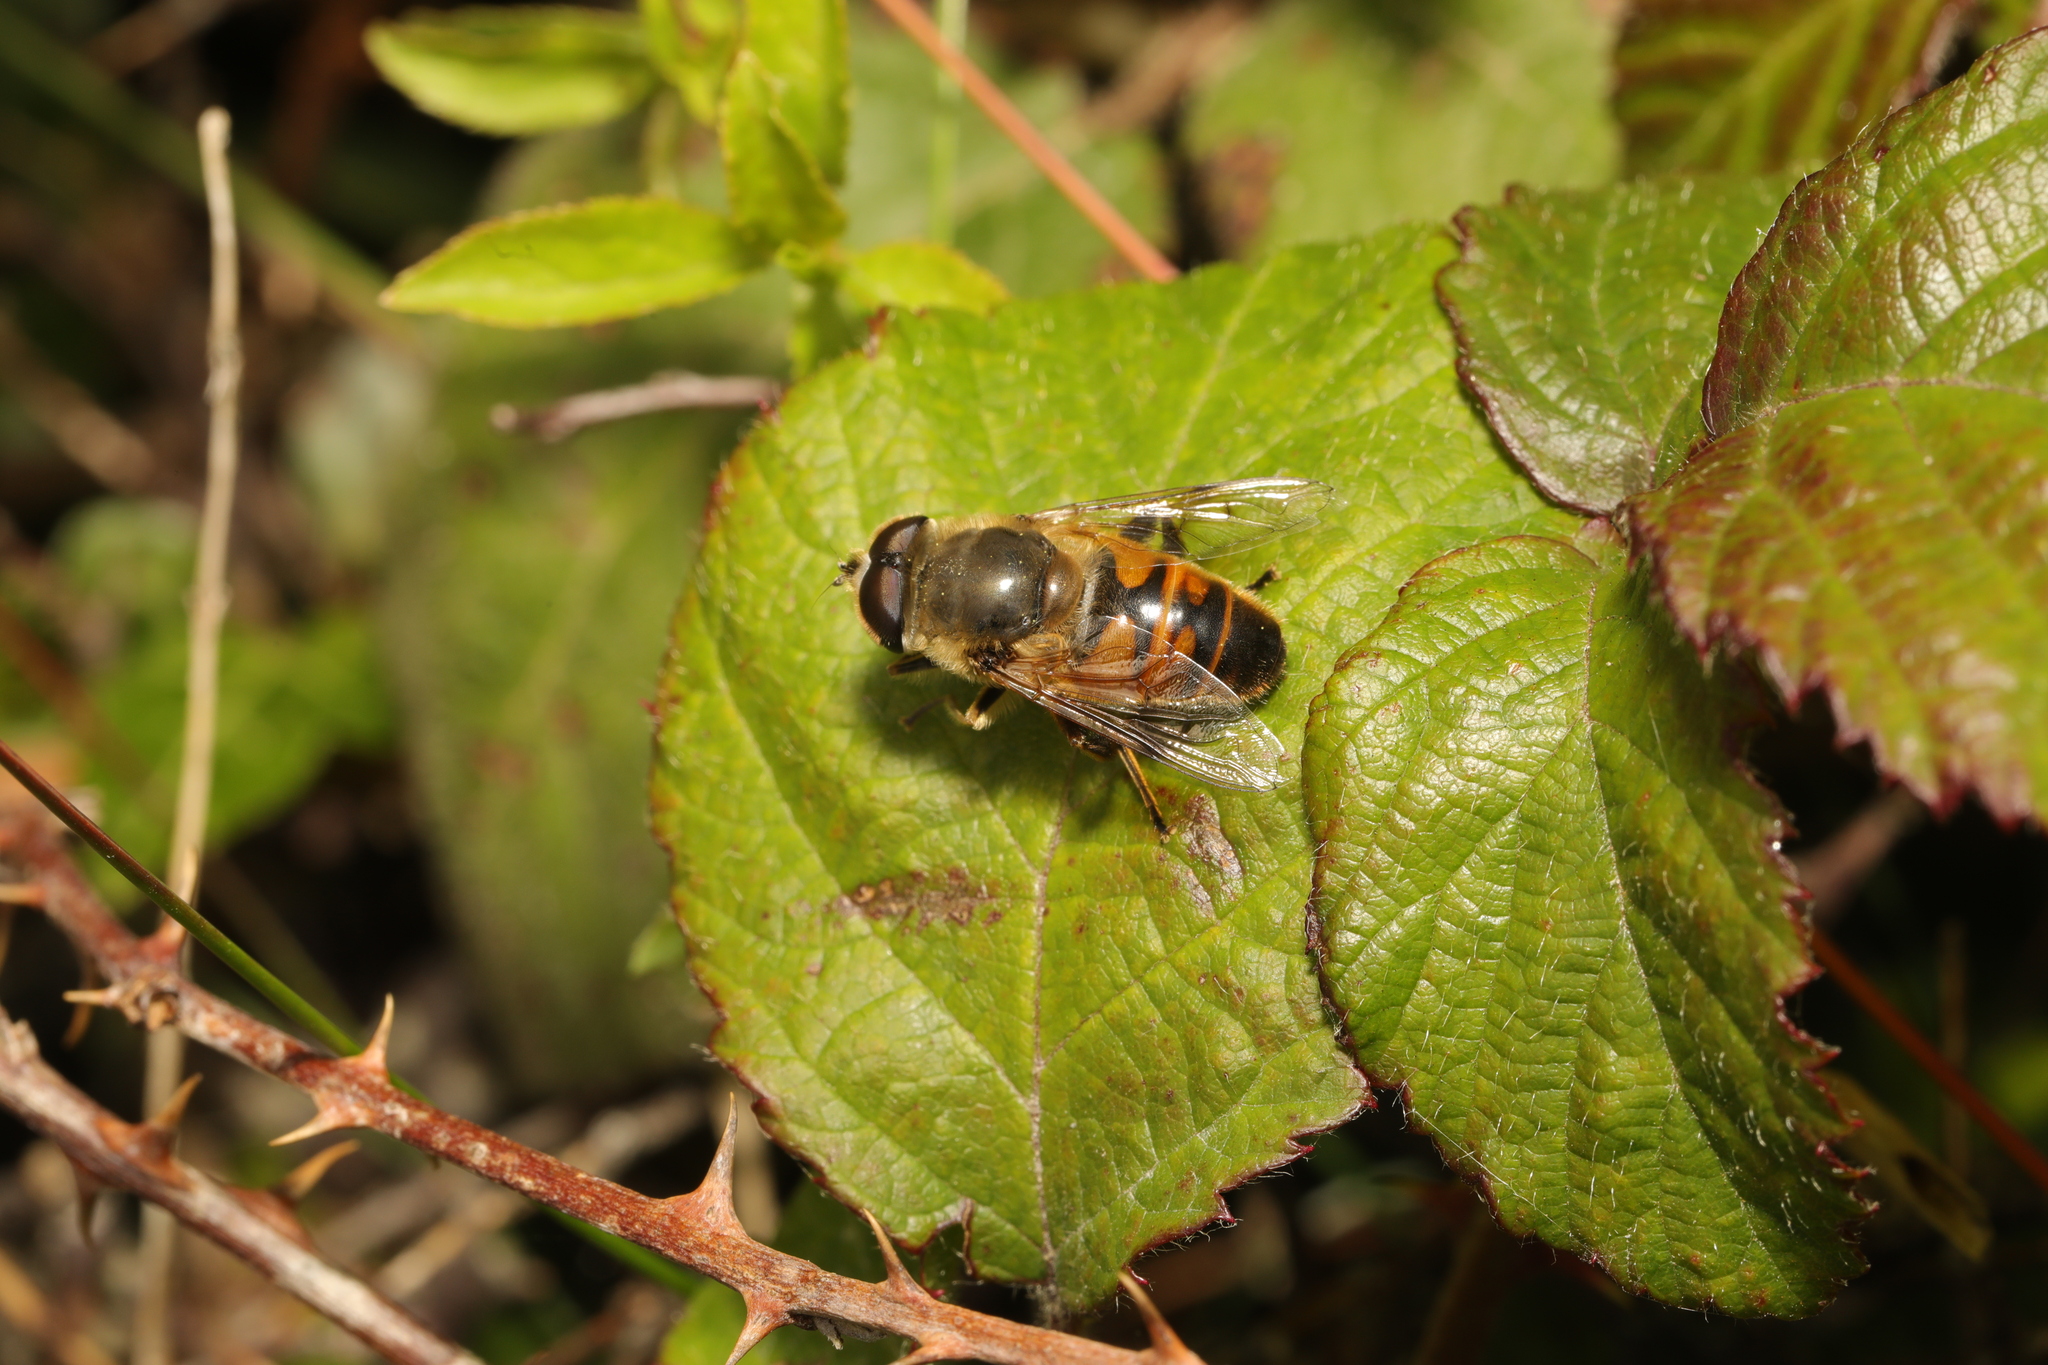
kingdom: Animalia
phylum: Arthropoda
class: Insecta
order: Diptera
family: Syrphidae
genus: Eristalis
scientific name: Eristalis tenax
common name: Drone fly
